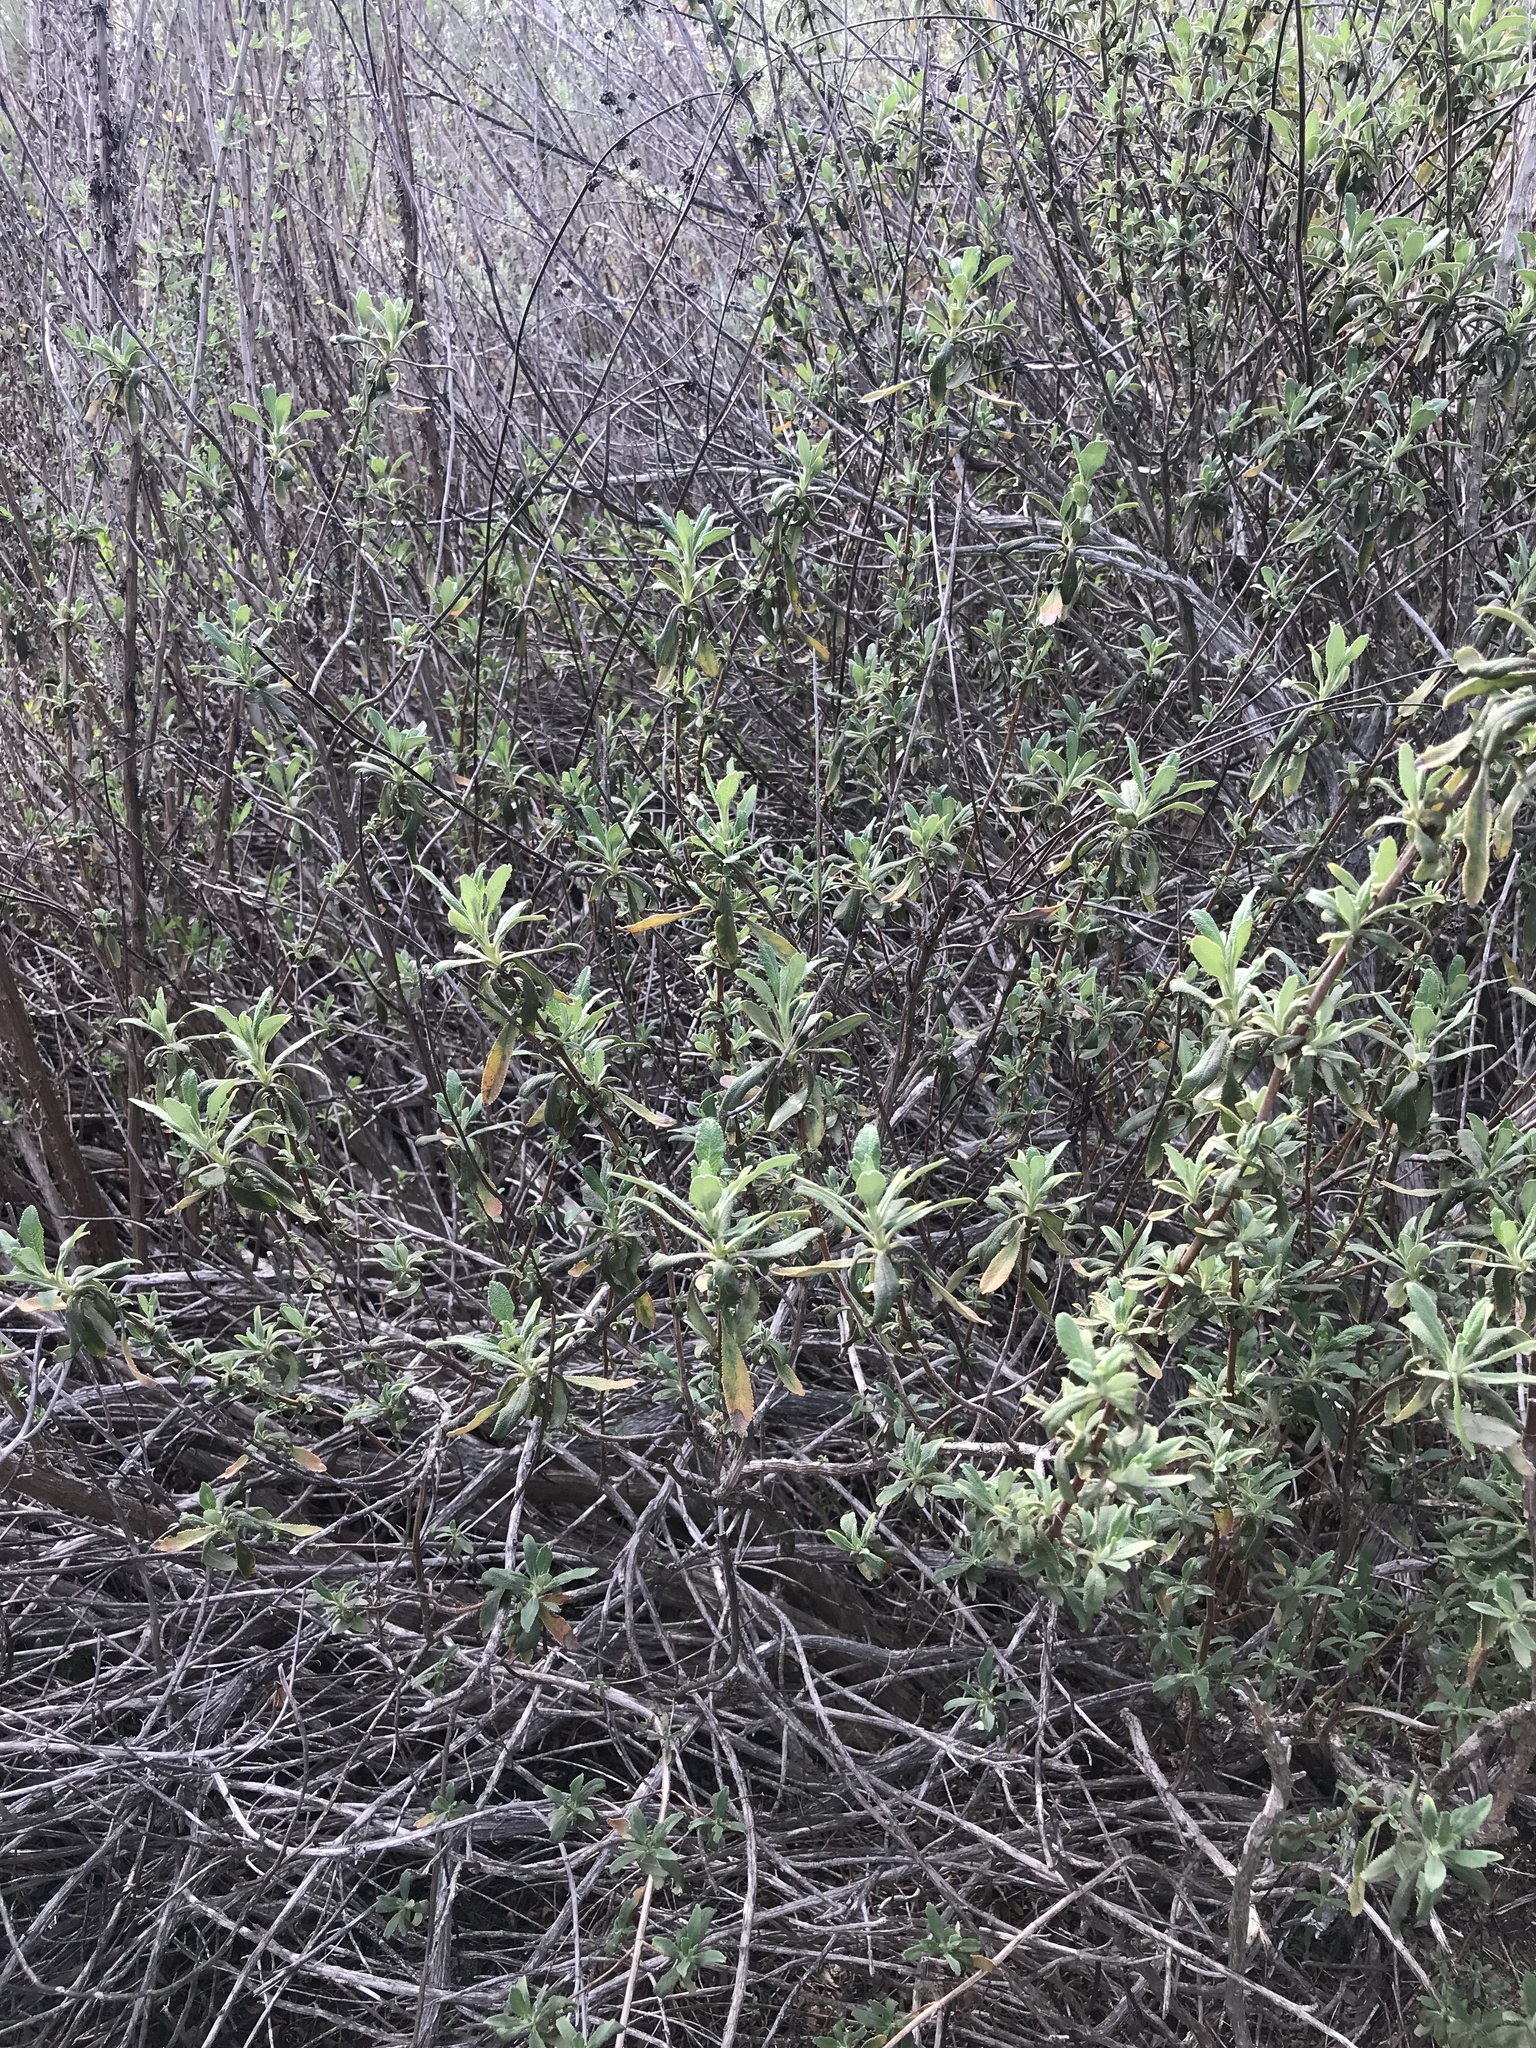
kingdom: Plantae
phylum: Tracheophyta
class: Magnoliopsida
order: Lamiales
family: Lamiaceae
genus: Salvia
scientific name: Salvia mellifera
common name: Black sage
